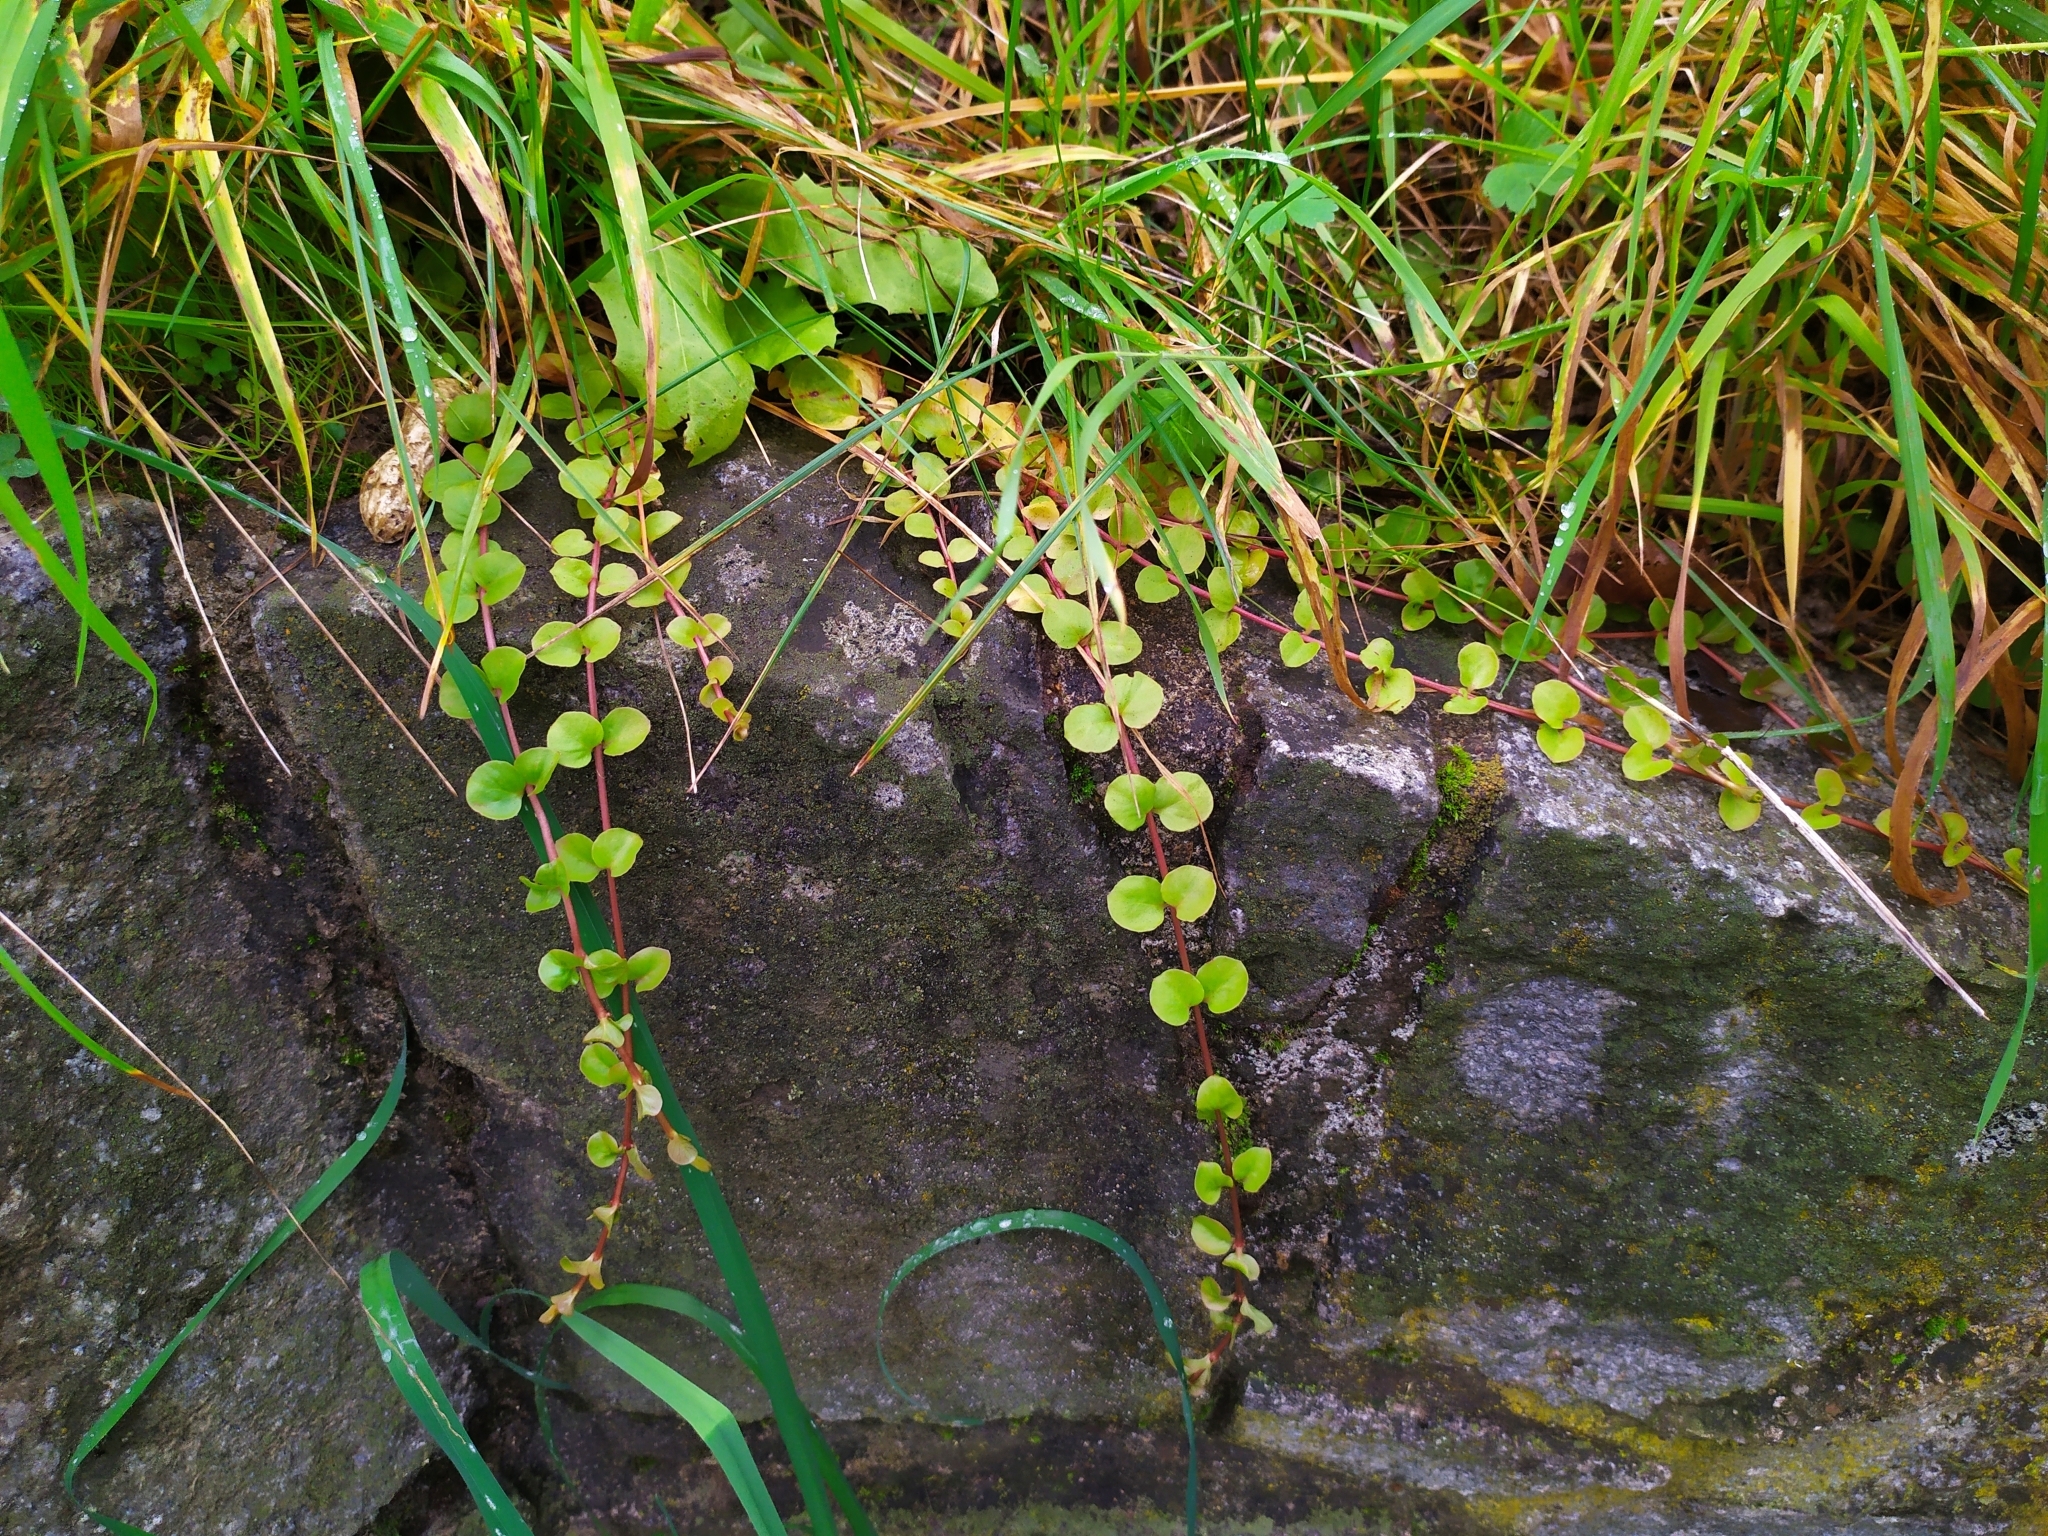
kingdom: Plantae
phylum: Tracheophyta
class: Magnoliopsida
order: Ericales
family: Primulaceae
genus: Lysimachia
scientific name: Lysimachia nummularia
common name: Moneywort
